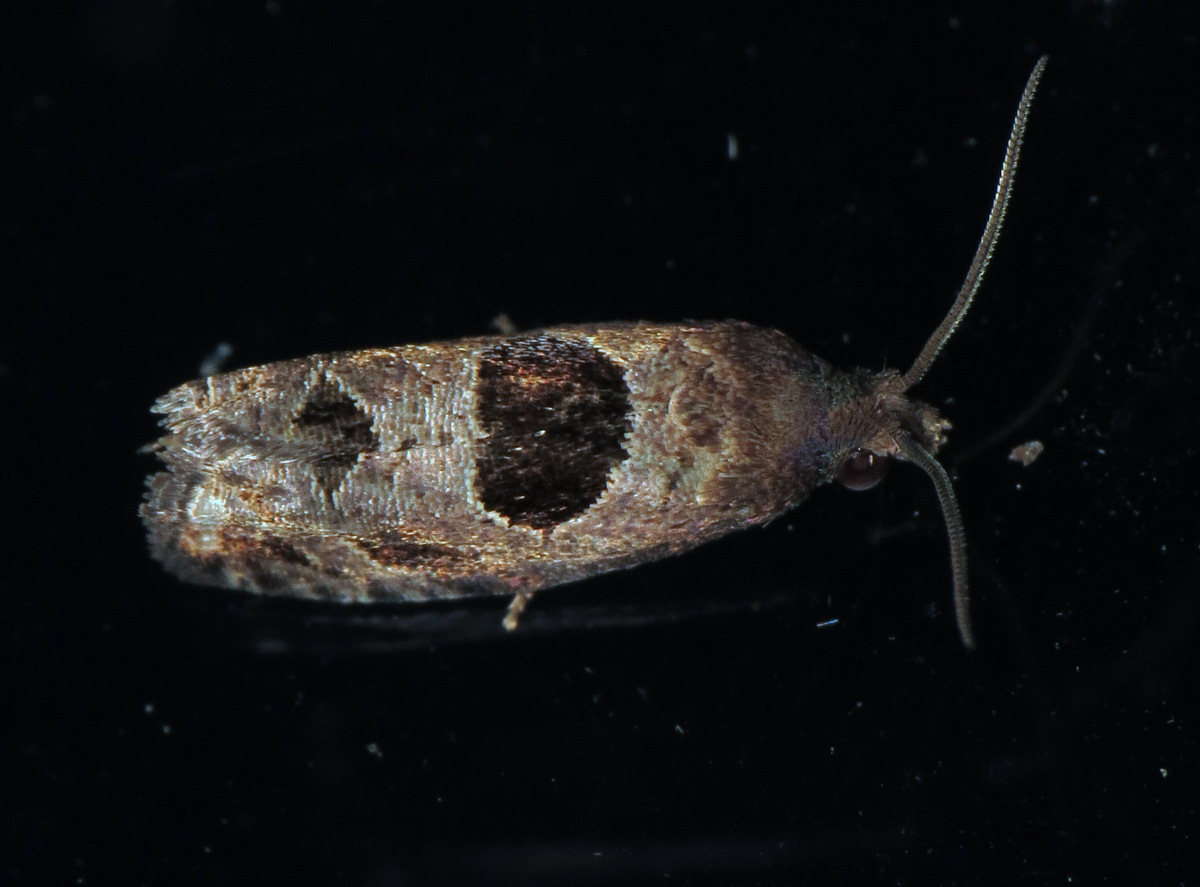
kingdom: Animalia
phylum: Arthropoda
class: Insecta
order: Lepidoptera
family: Tortricidae
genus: Epiblema
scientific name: Epiblema brightonana
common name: Brighton's epiblema moth
